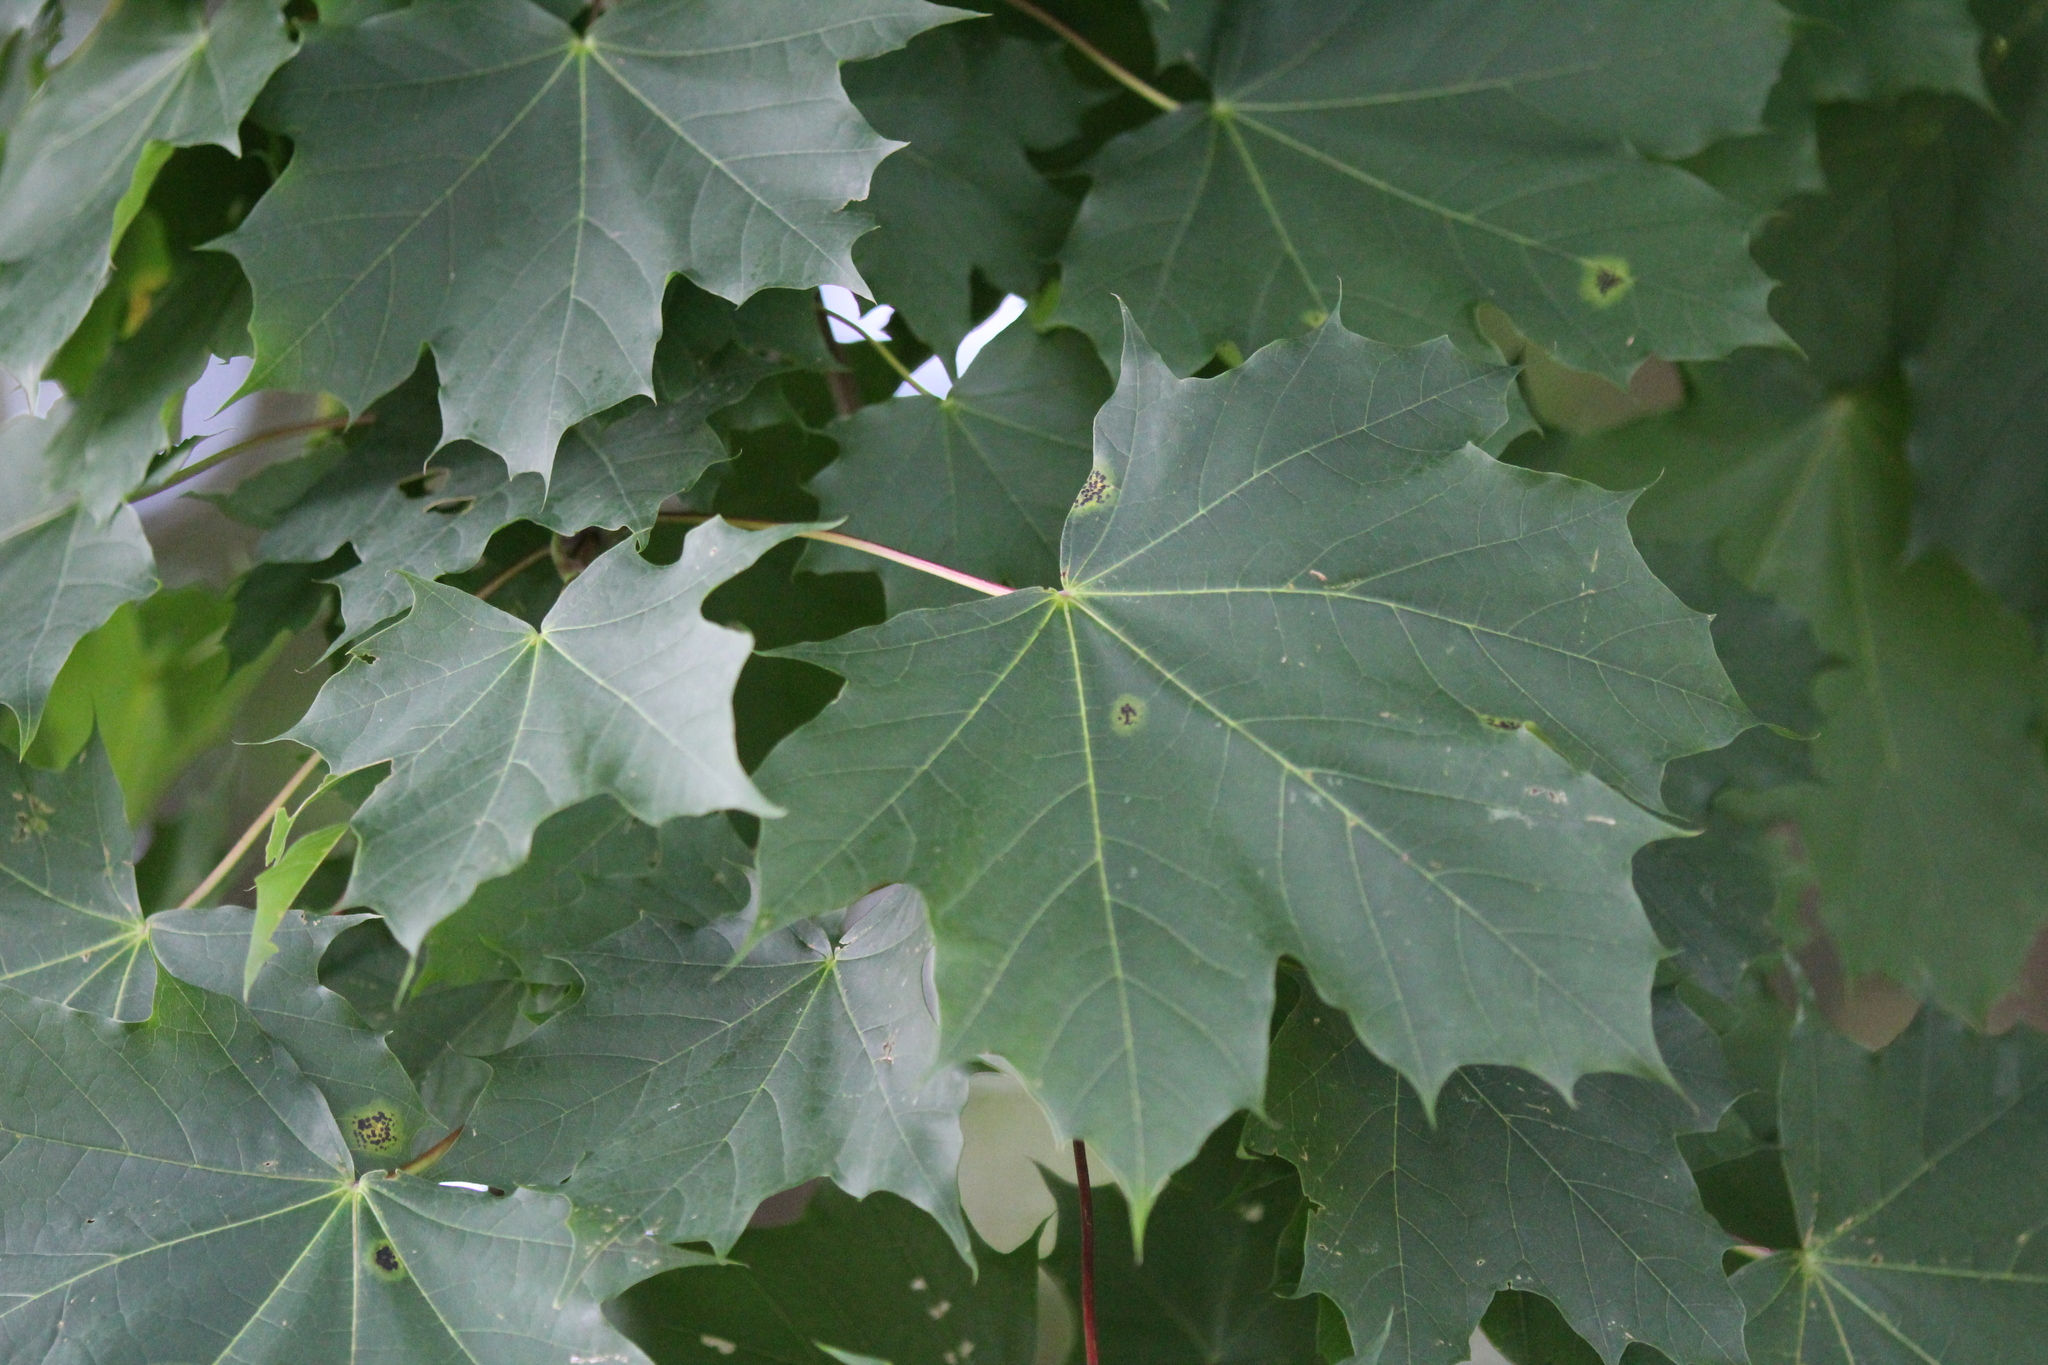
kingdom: Plantae
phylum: Tracheophyta
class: Magnoliopsida
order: Sapindales
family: Sapindaceae
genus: Acer
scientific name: Acer platanoides
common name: Norway maple
